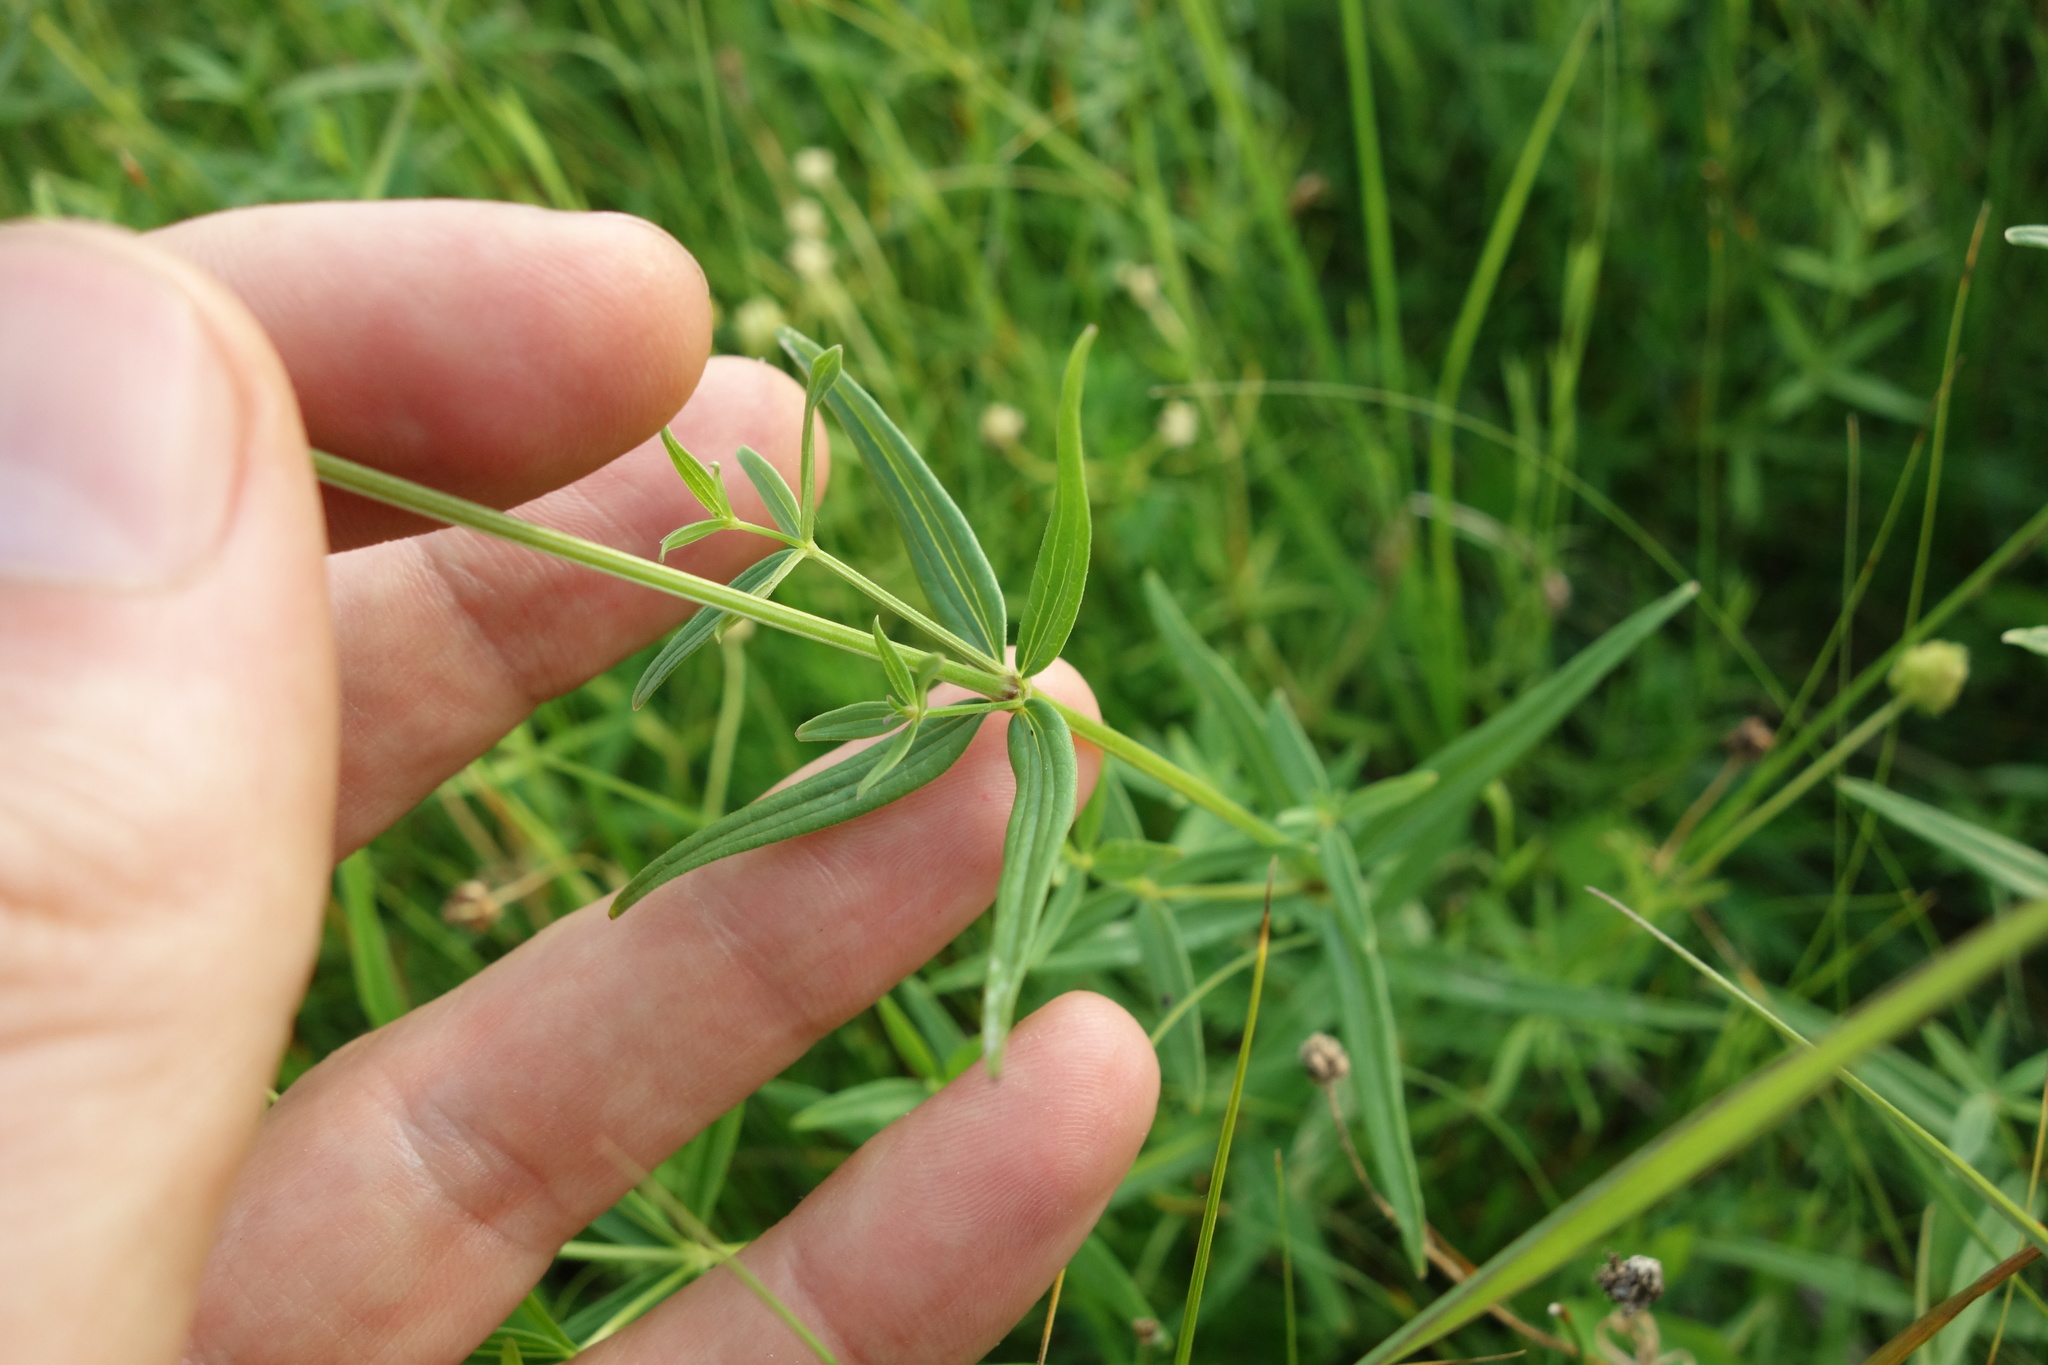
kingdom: Plantae
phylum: Tracheophyta
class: Magnoliopsida
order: Gentianales
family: Rubiaceae
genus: Galium
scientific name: Galium boreale
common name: Northern bedstraw
